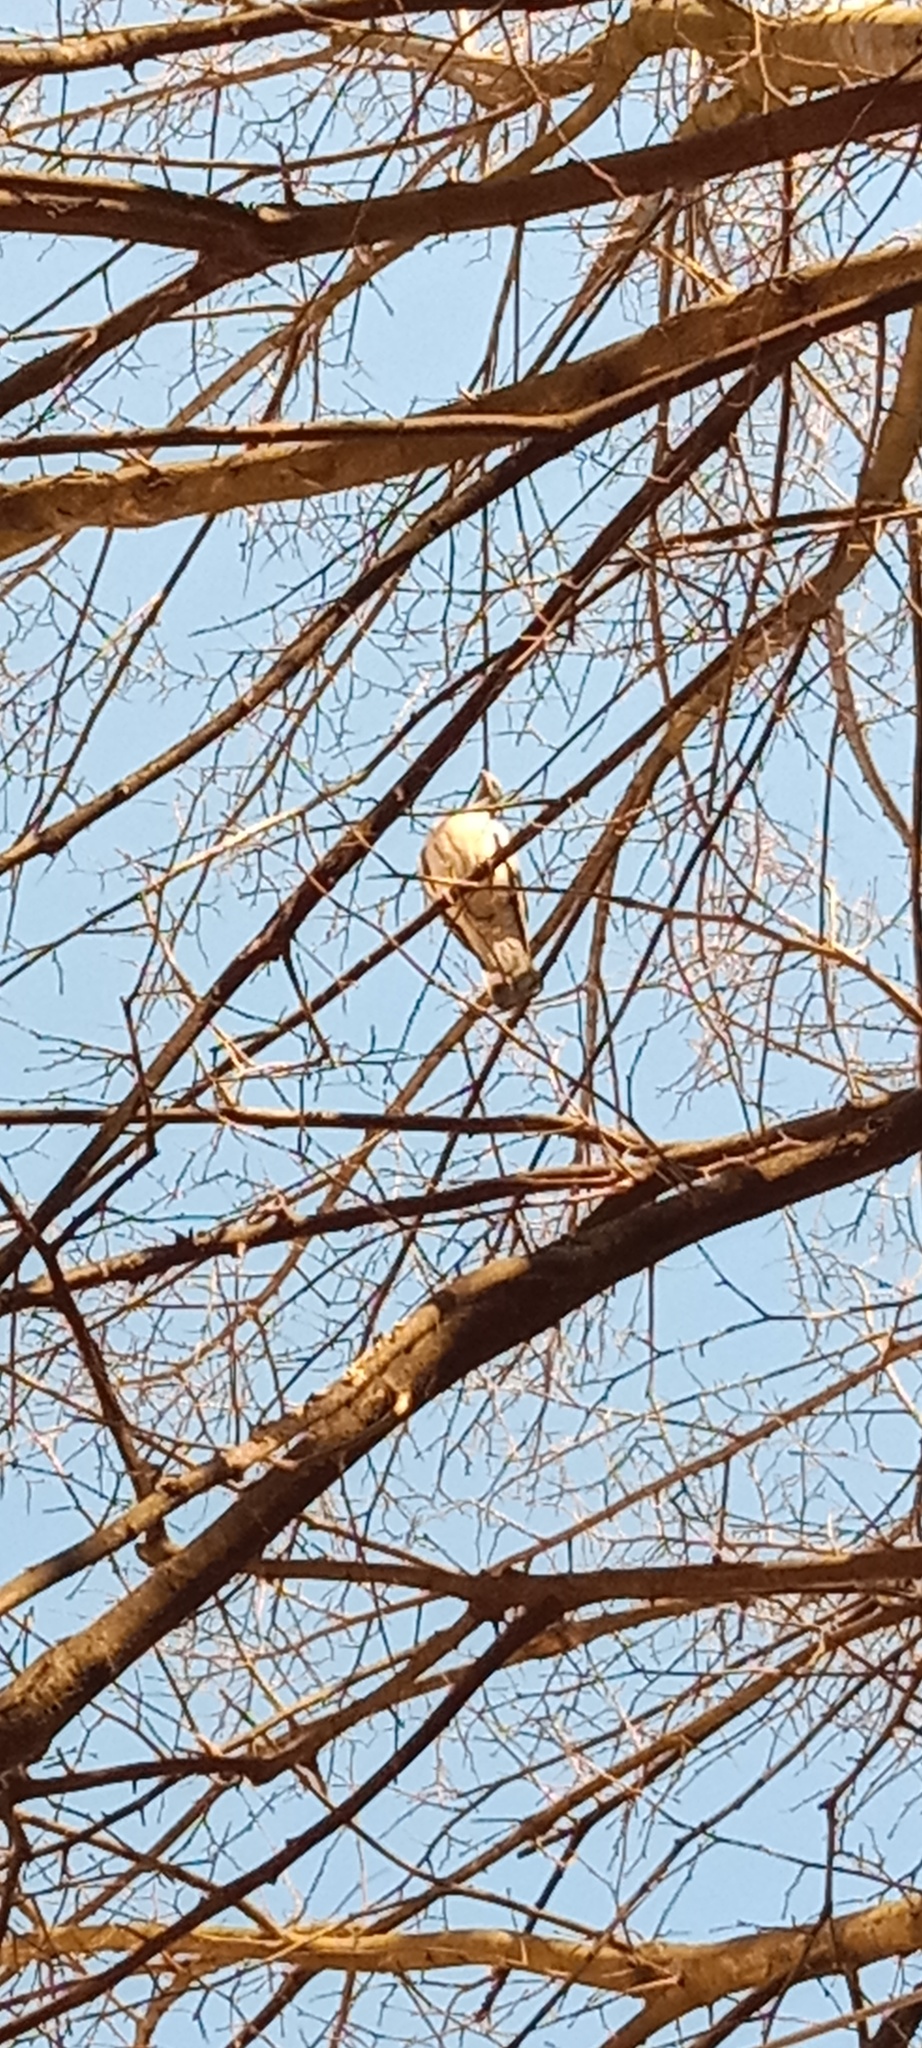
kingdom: Animalia
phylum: Chordata
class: Aves
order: Columbiformes
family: Columbidae
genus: Columba
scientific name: Columba palumbus
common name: Common wood pigeon
